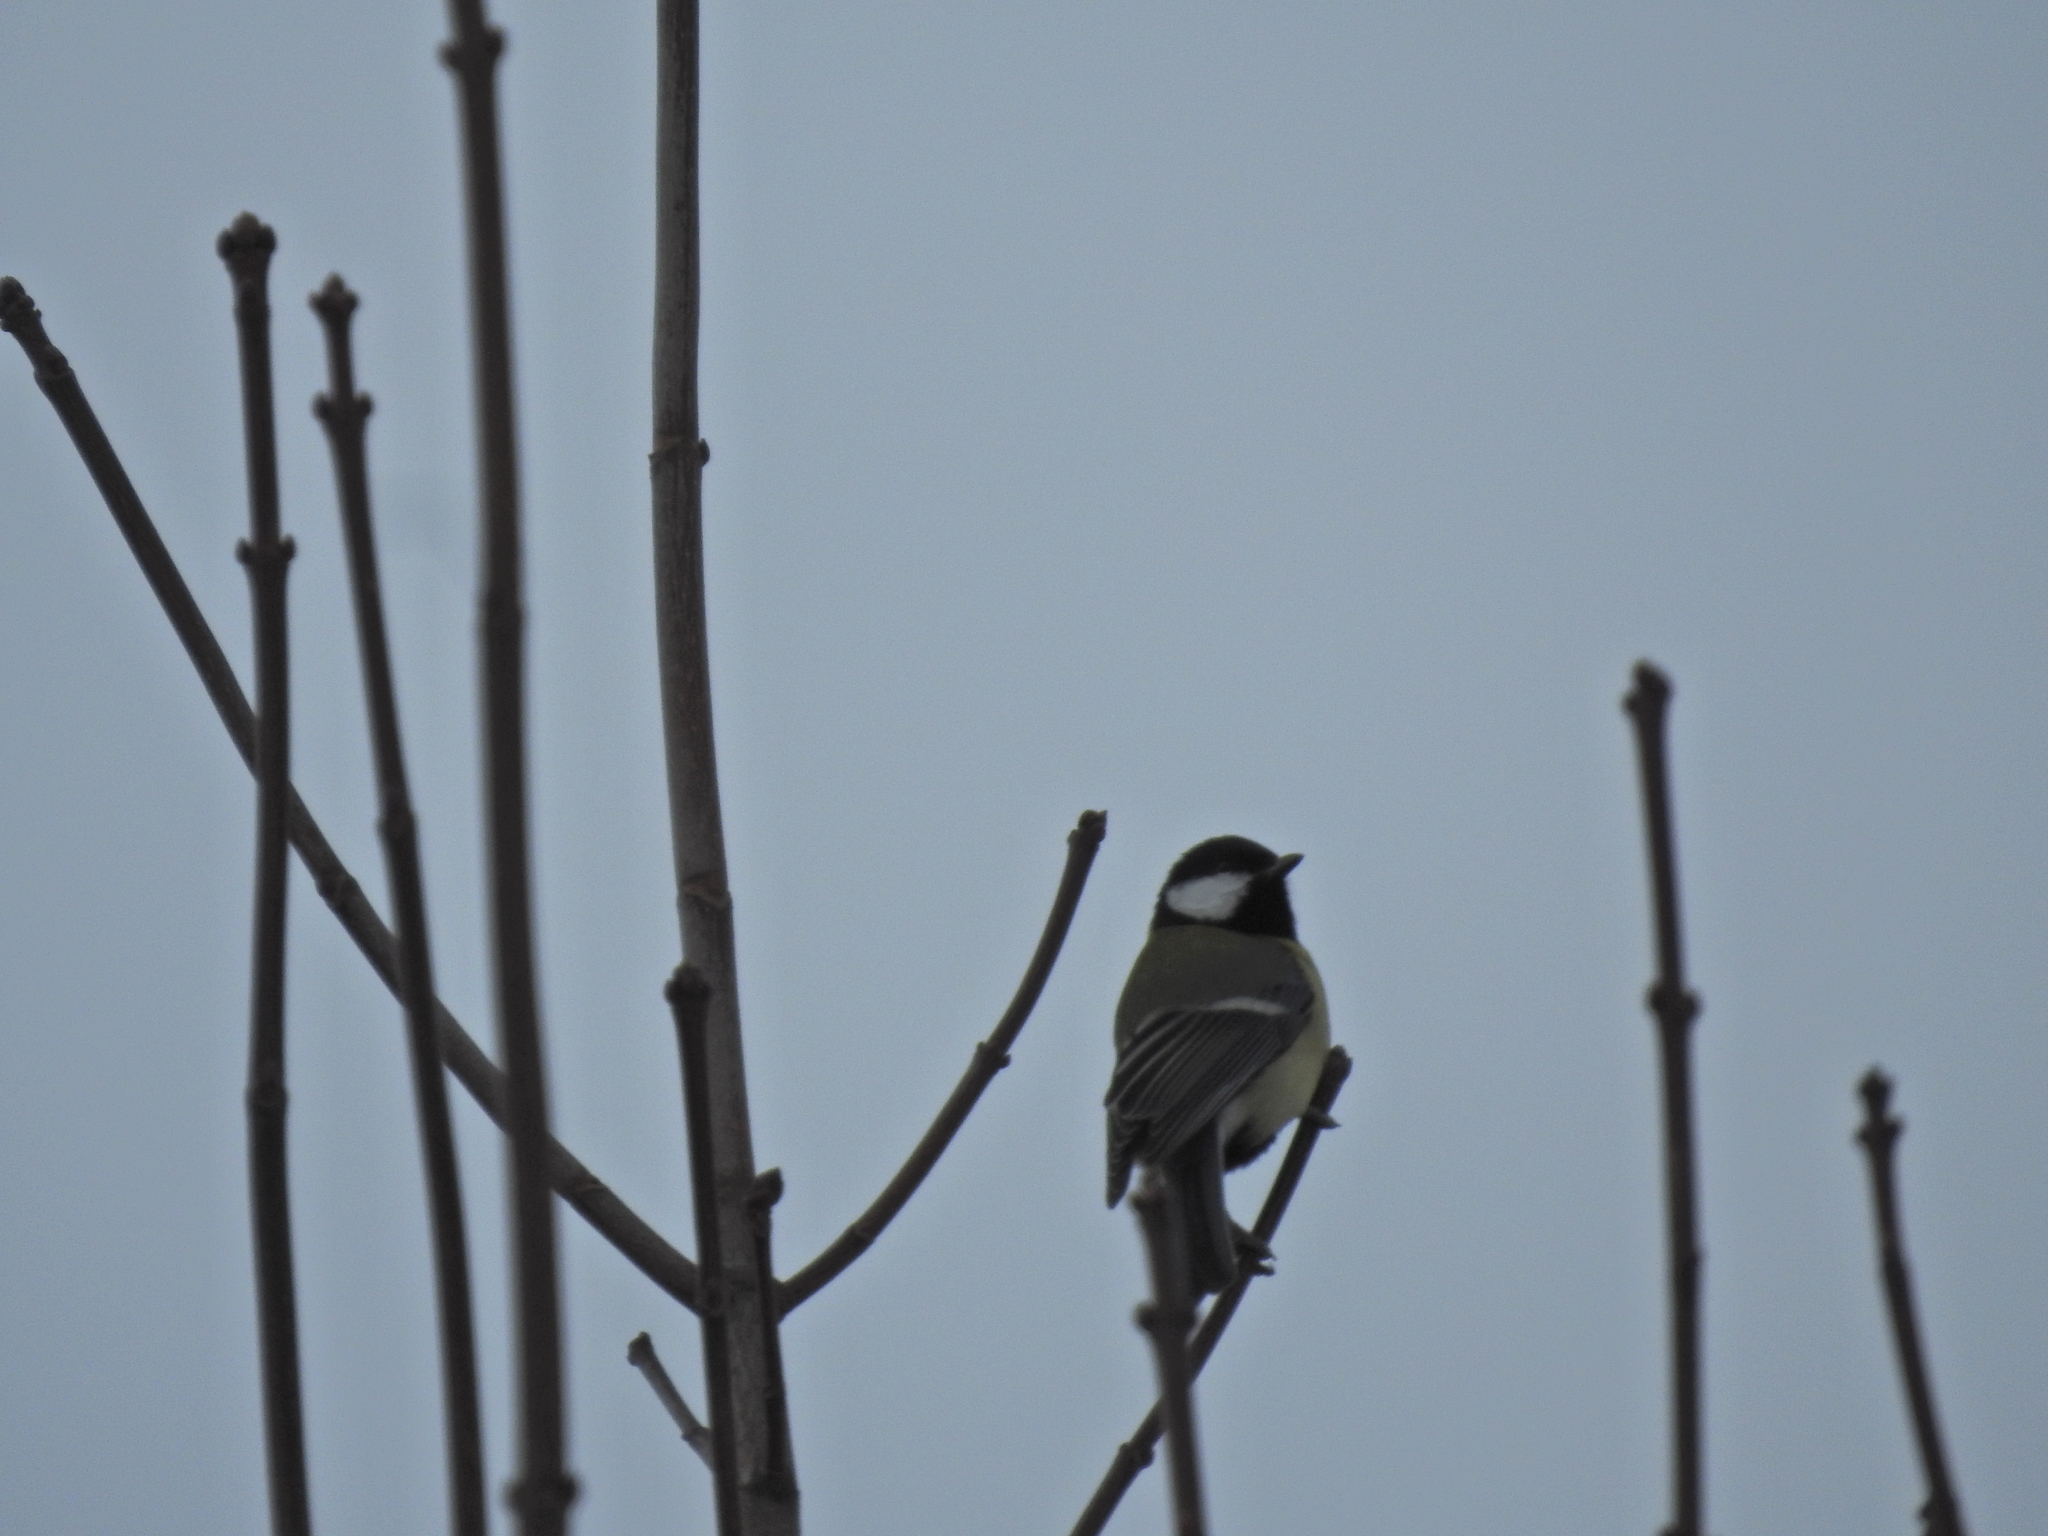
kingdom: Animalia
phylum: Chordata
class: Aves
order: Passeriformes
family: Paridae
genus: Parus
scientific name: Parus major
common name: Great tit
